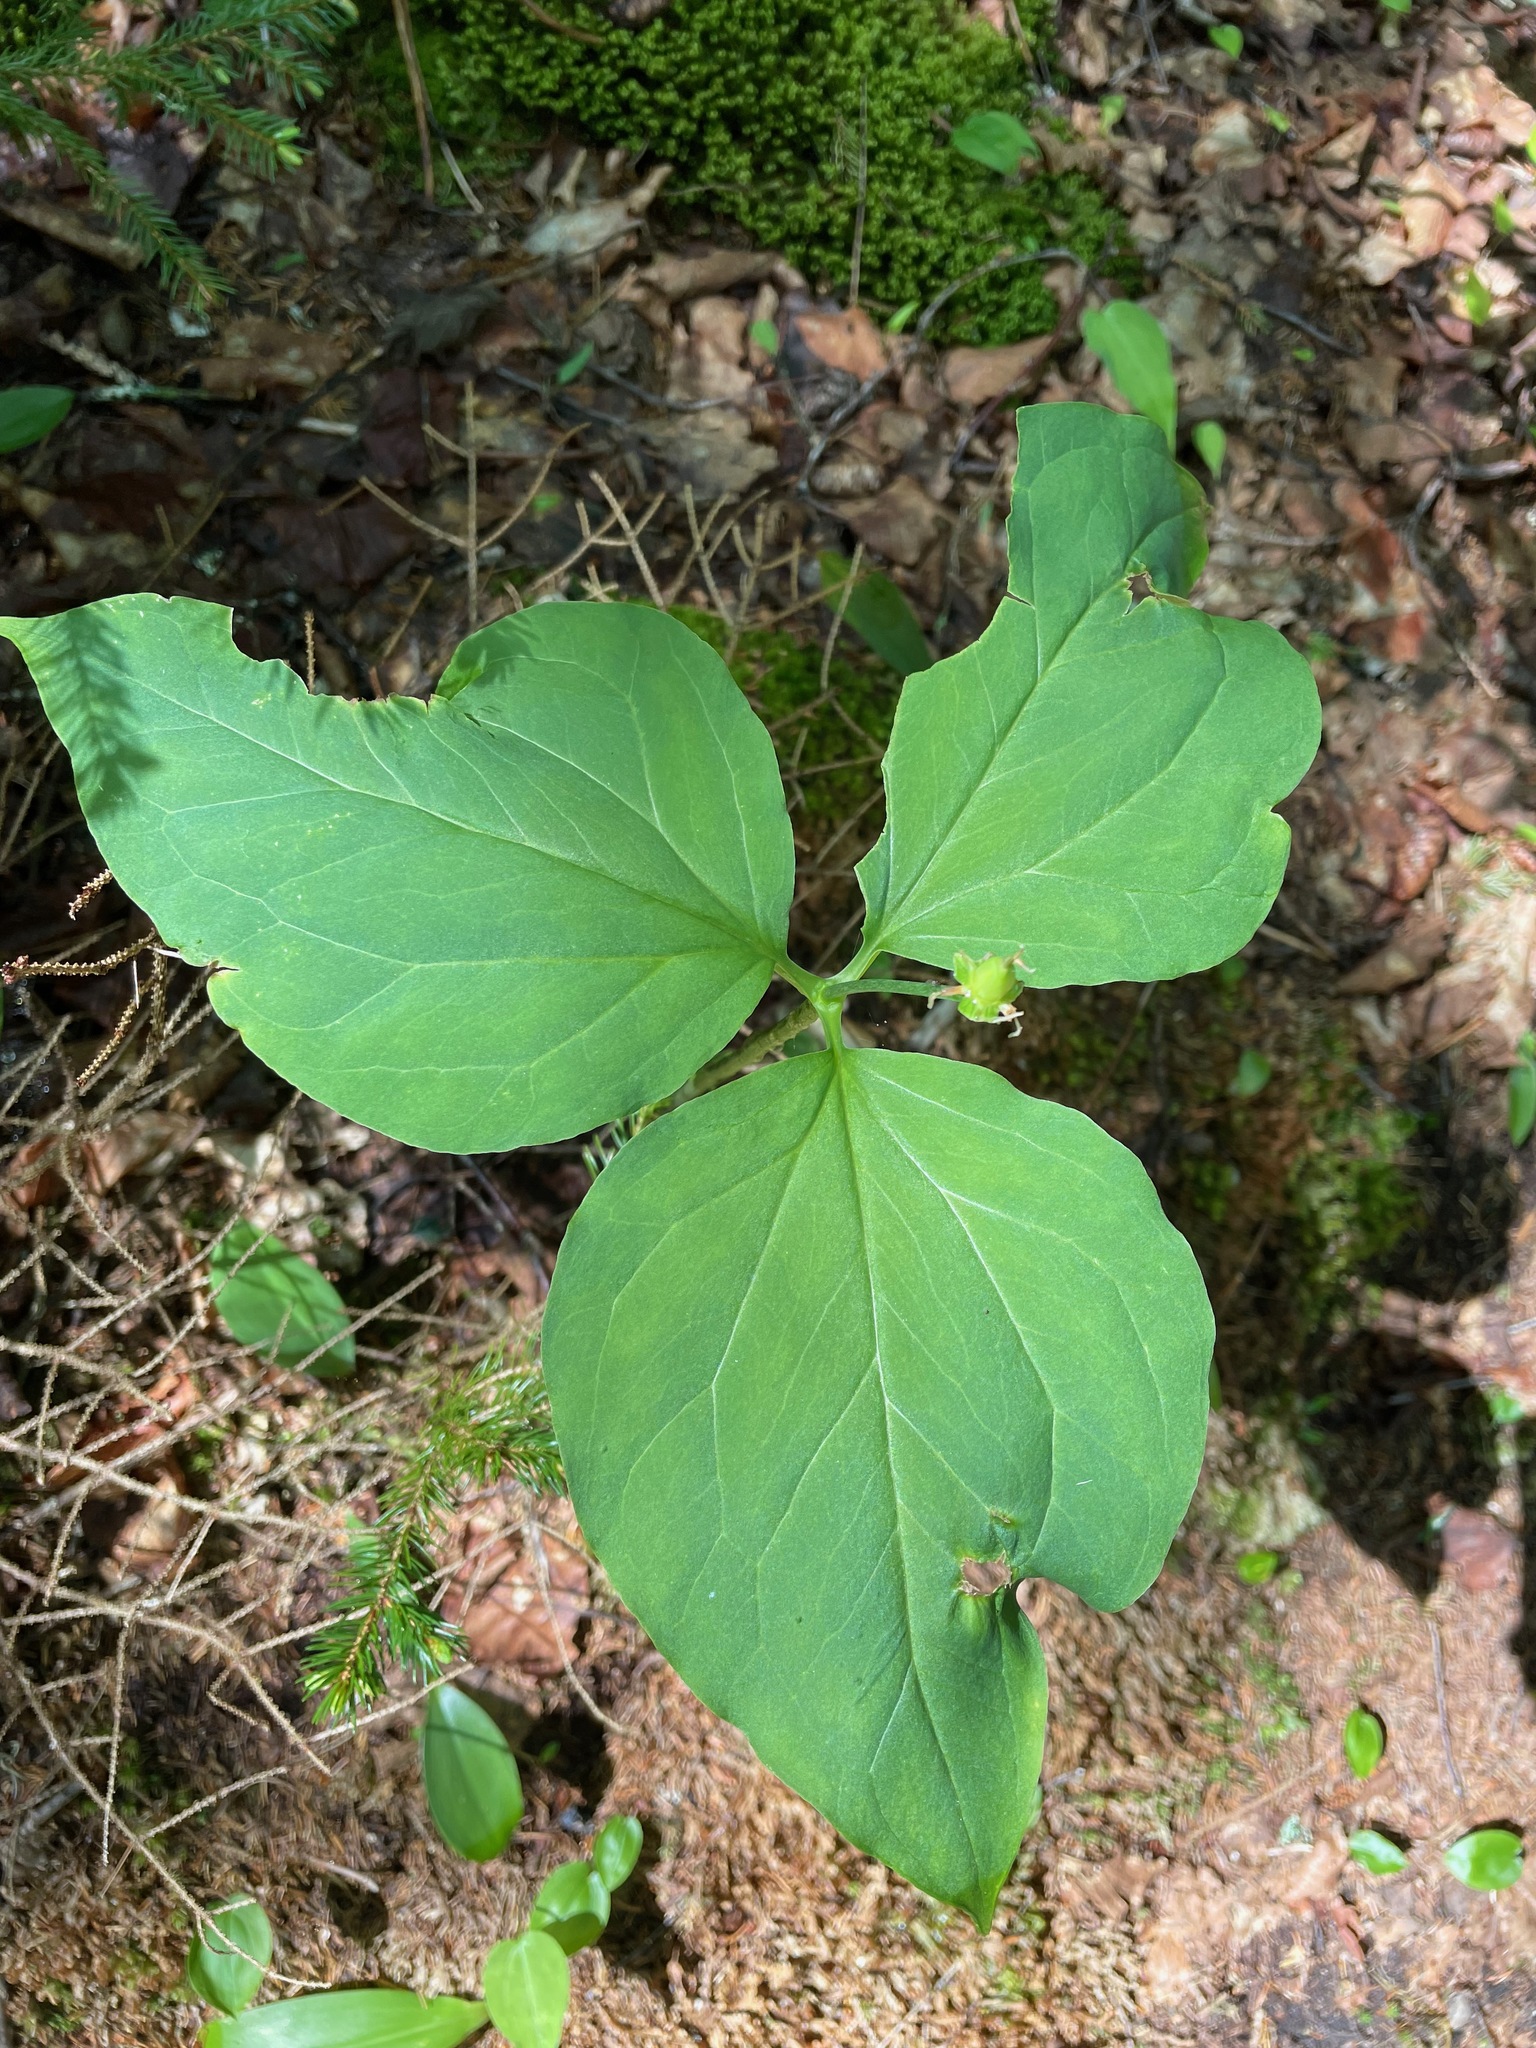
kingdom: Plantae
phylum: Tracheophyta
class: Liliopsida
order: Liliales
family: Melanthiaceae
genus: Trillium
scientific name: Trillium undulatum
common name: Paint trillium
